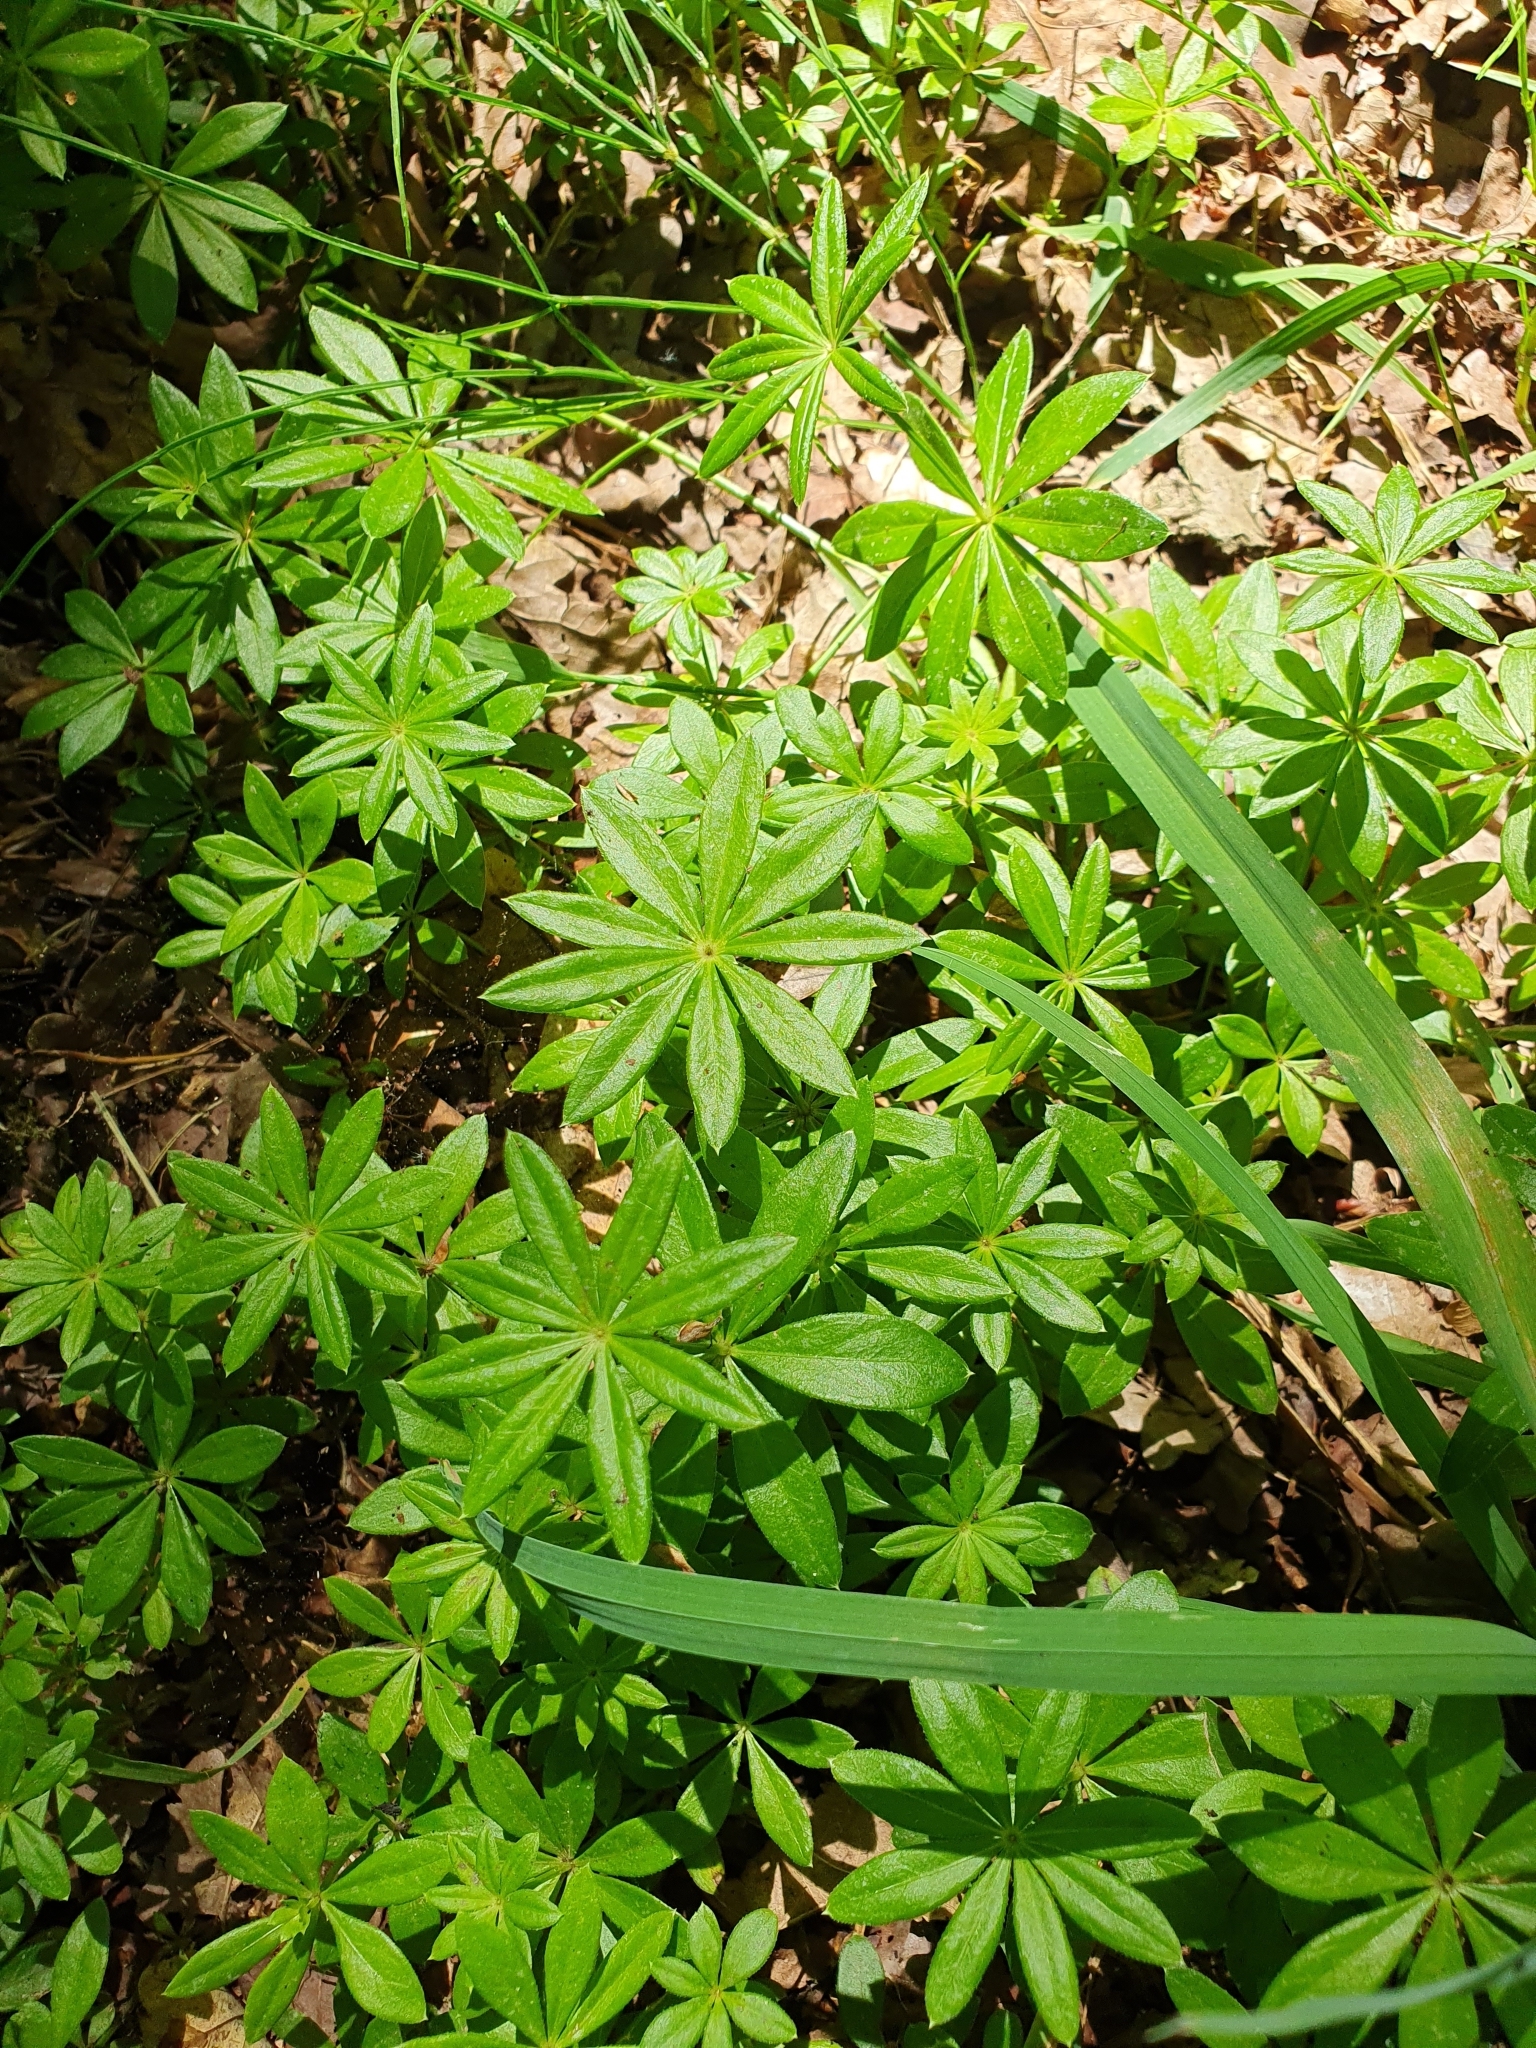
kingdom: Plantae
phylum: Tracheophyta
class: Magnoliopsida
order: Gentianales
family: Rubiaceae
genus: Galium
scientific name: Galium odoratum
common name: Sweet woodruff
